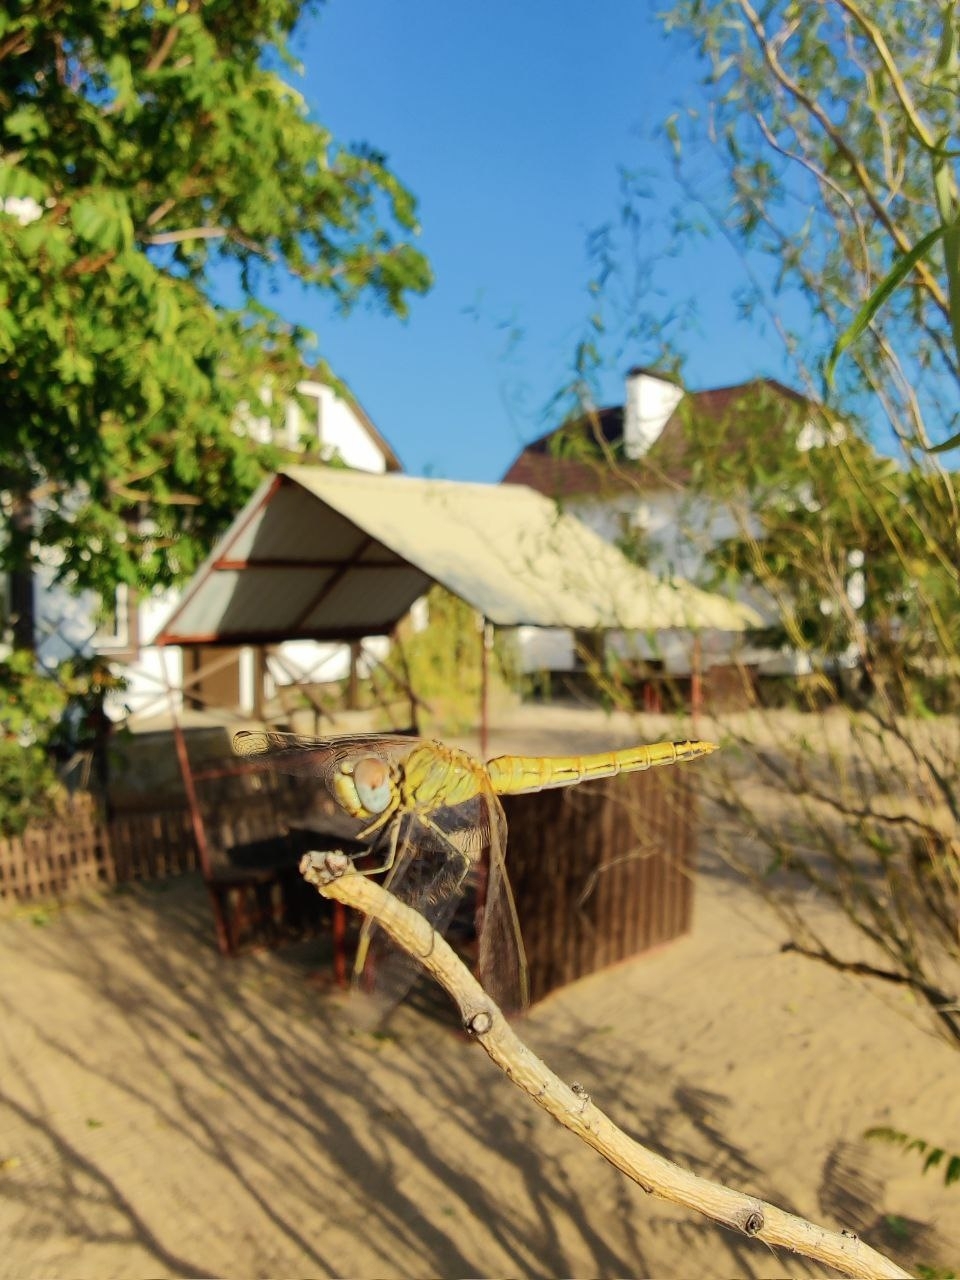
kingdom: Animalia
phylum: Arthropoda
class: Insecta
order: Odonata
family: Libellulidae
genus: Sympetrum
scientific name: Sympetrum fonscolombii
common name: Red-veined darter
